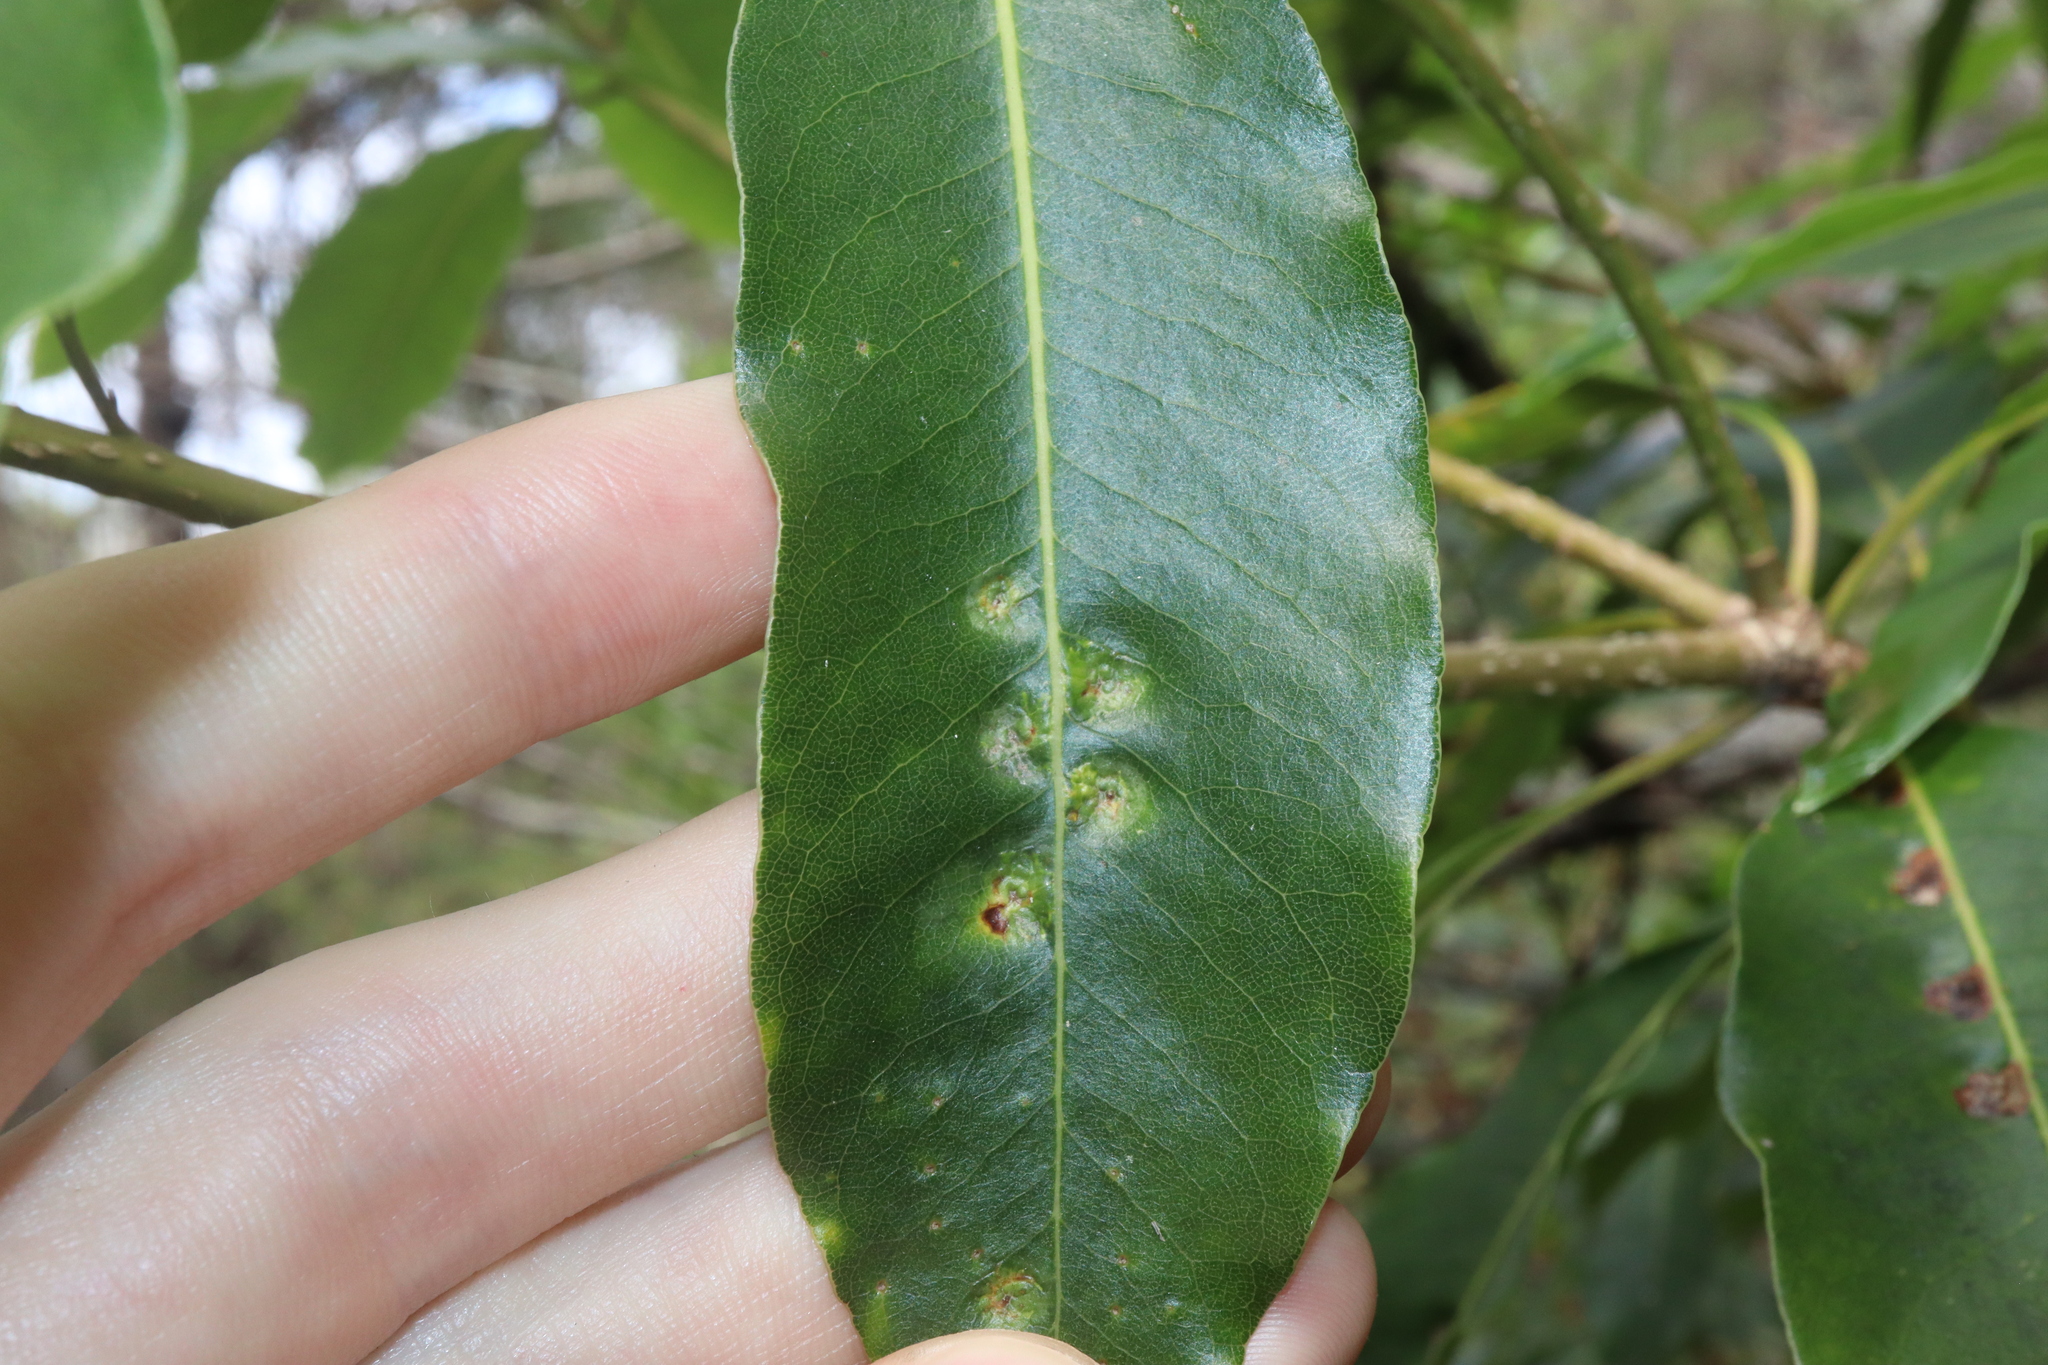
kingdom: Animalia
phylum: Arthropoda
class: Insecta
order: Diptera
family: Agromyzidae
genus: Phytoliriomyza
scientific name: Phytoliriomyza pittosporophylli
